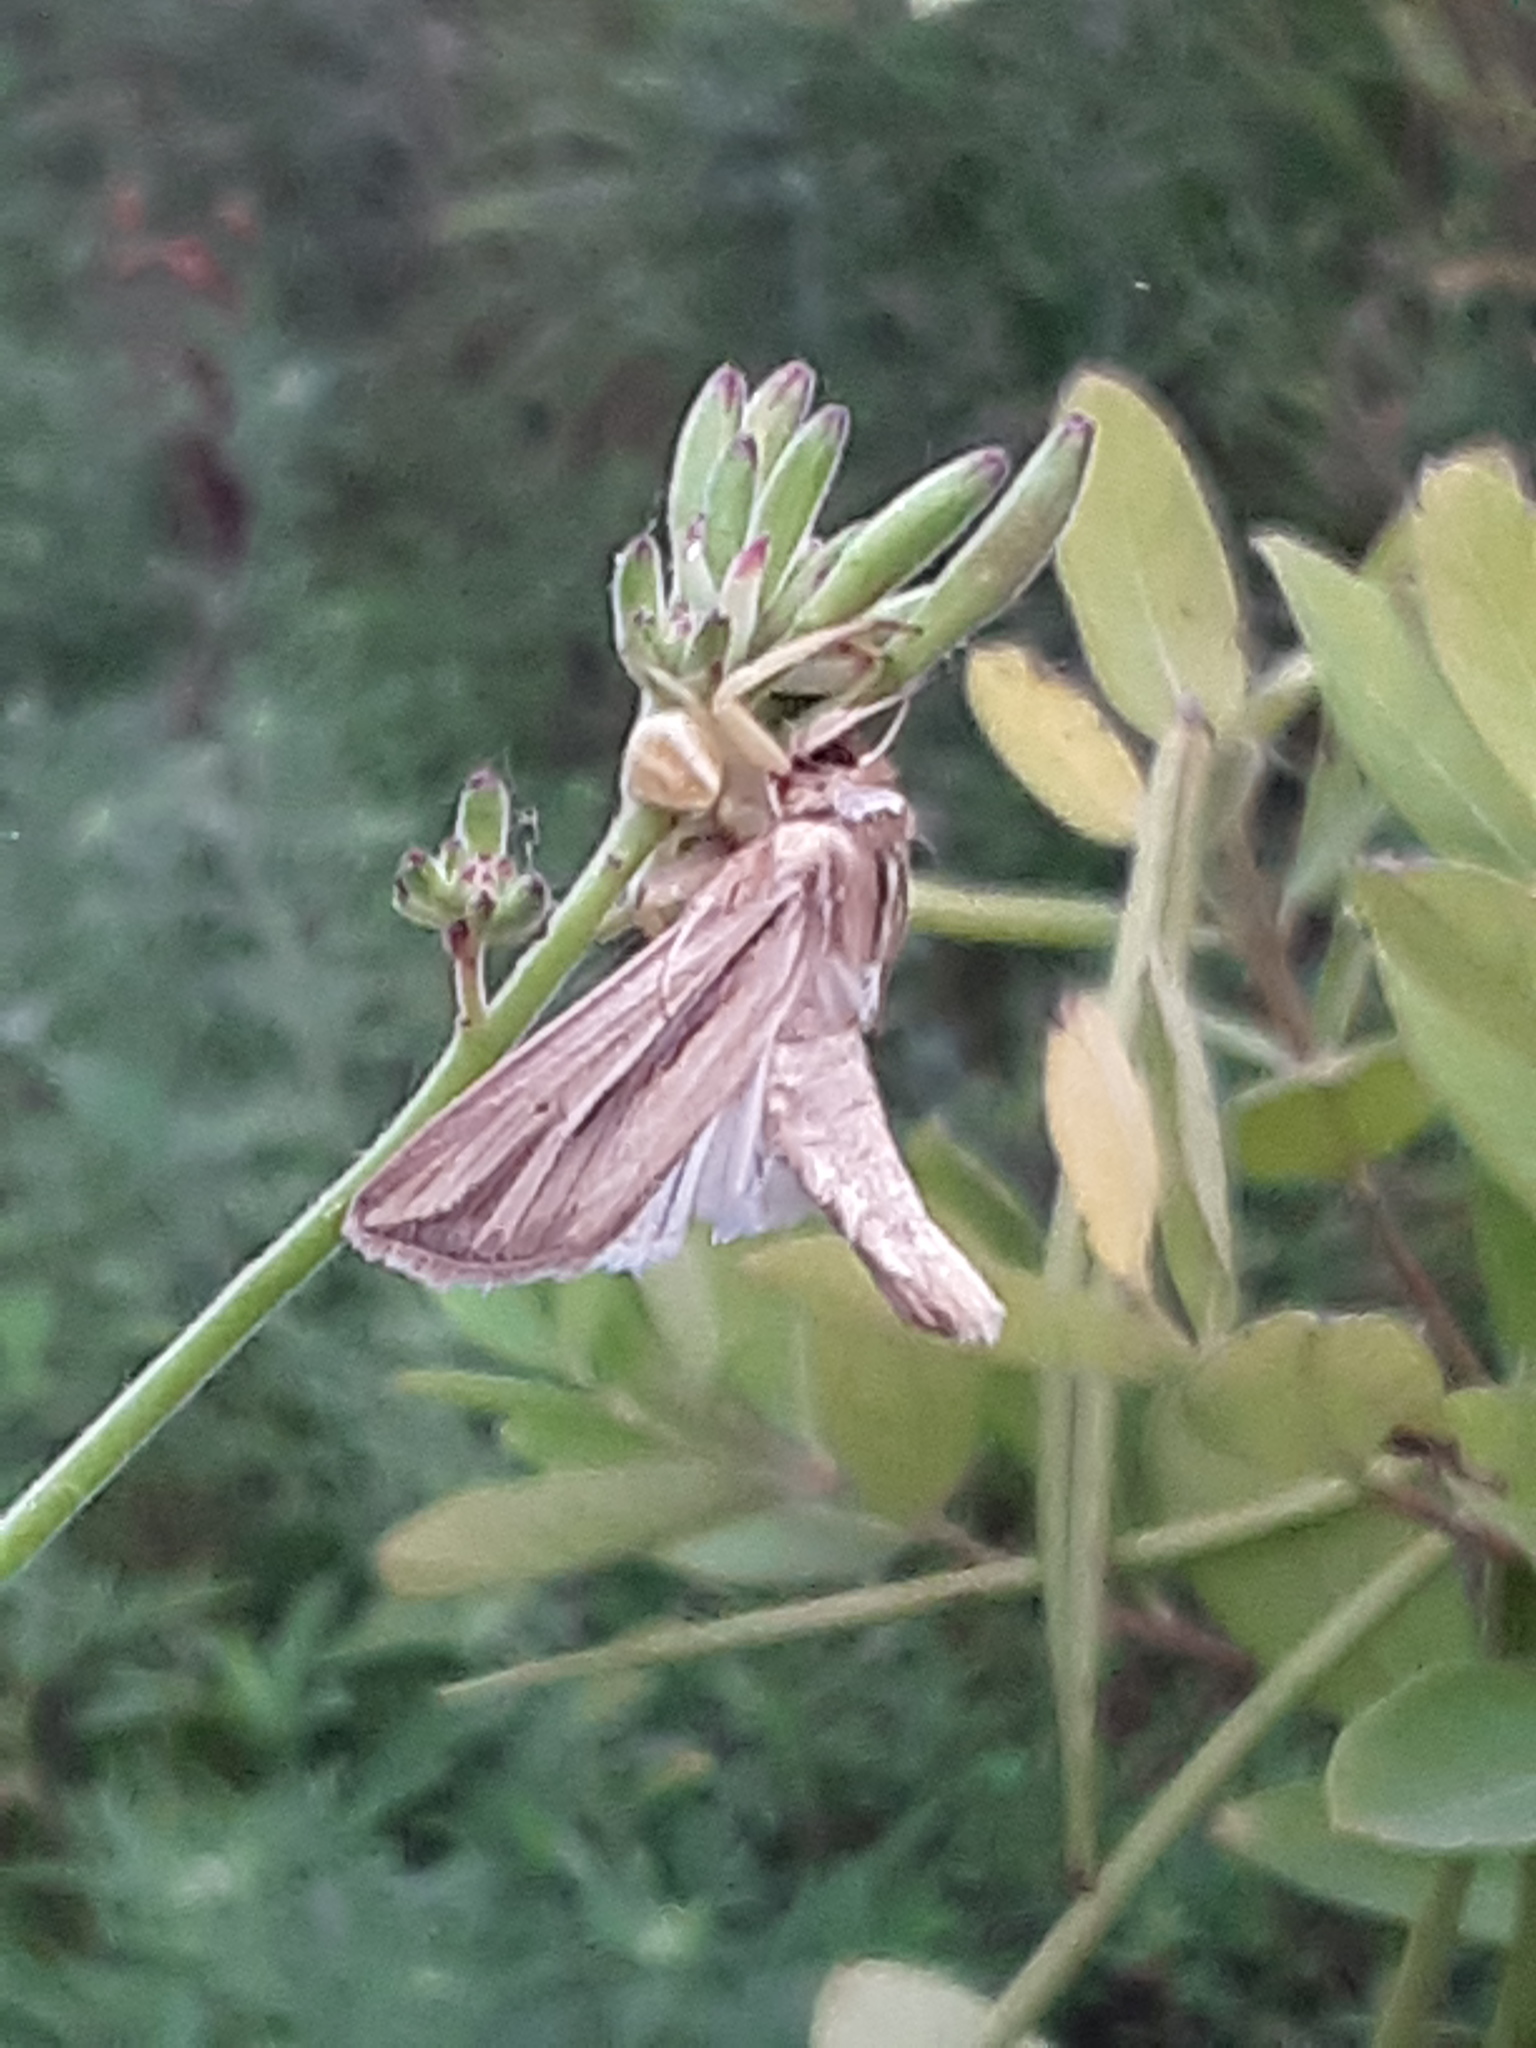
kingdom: Animalia
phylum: Arthropoda
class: Insecta
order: Lepidoptera
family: Noctuidae
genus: Dargida
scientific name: Dargida diffusa
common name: Wheat head armyworm
